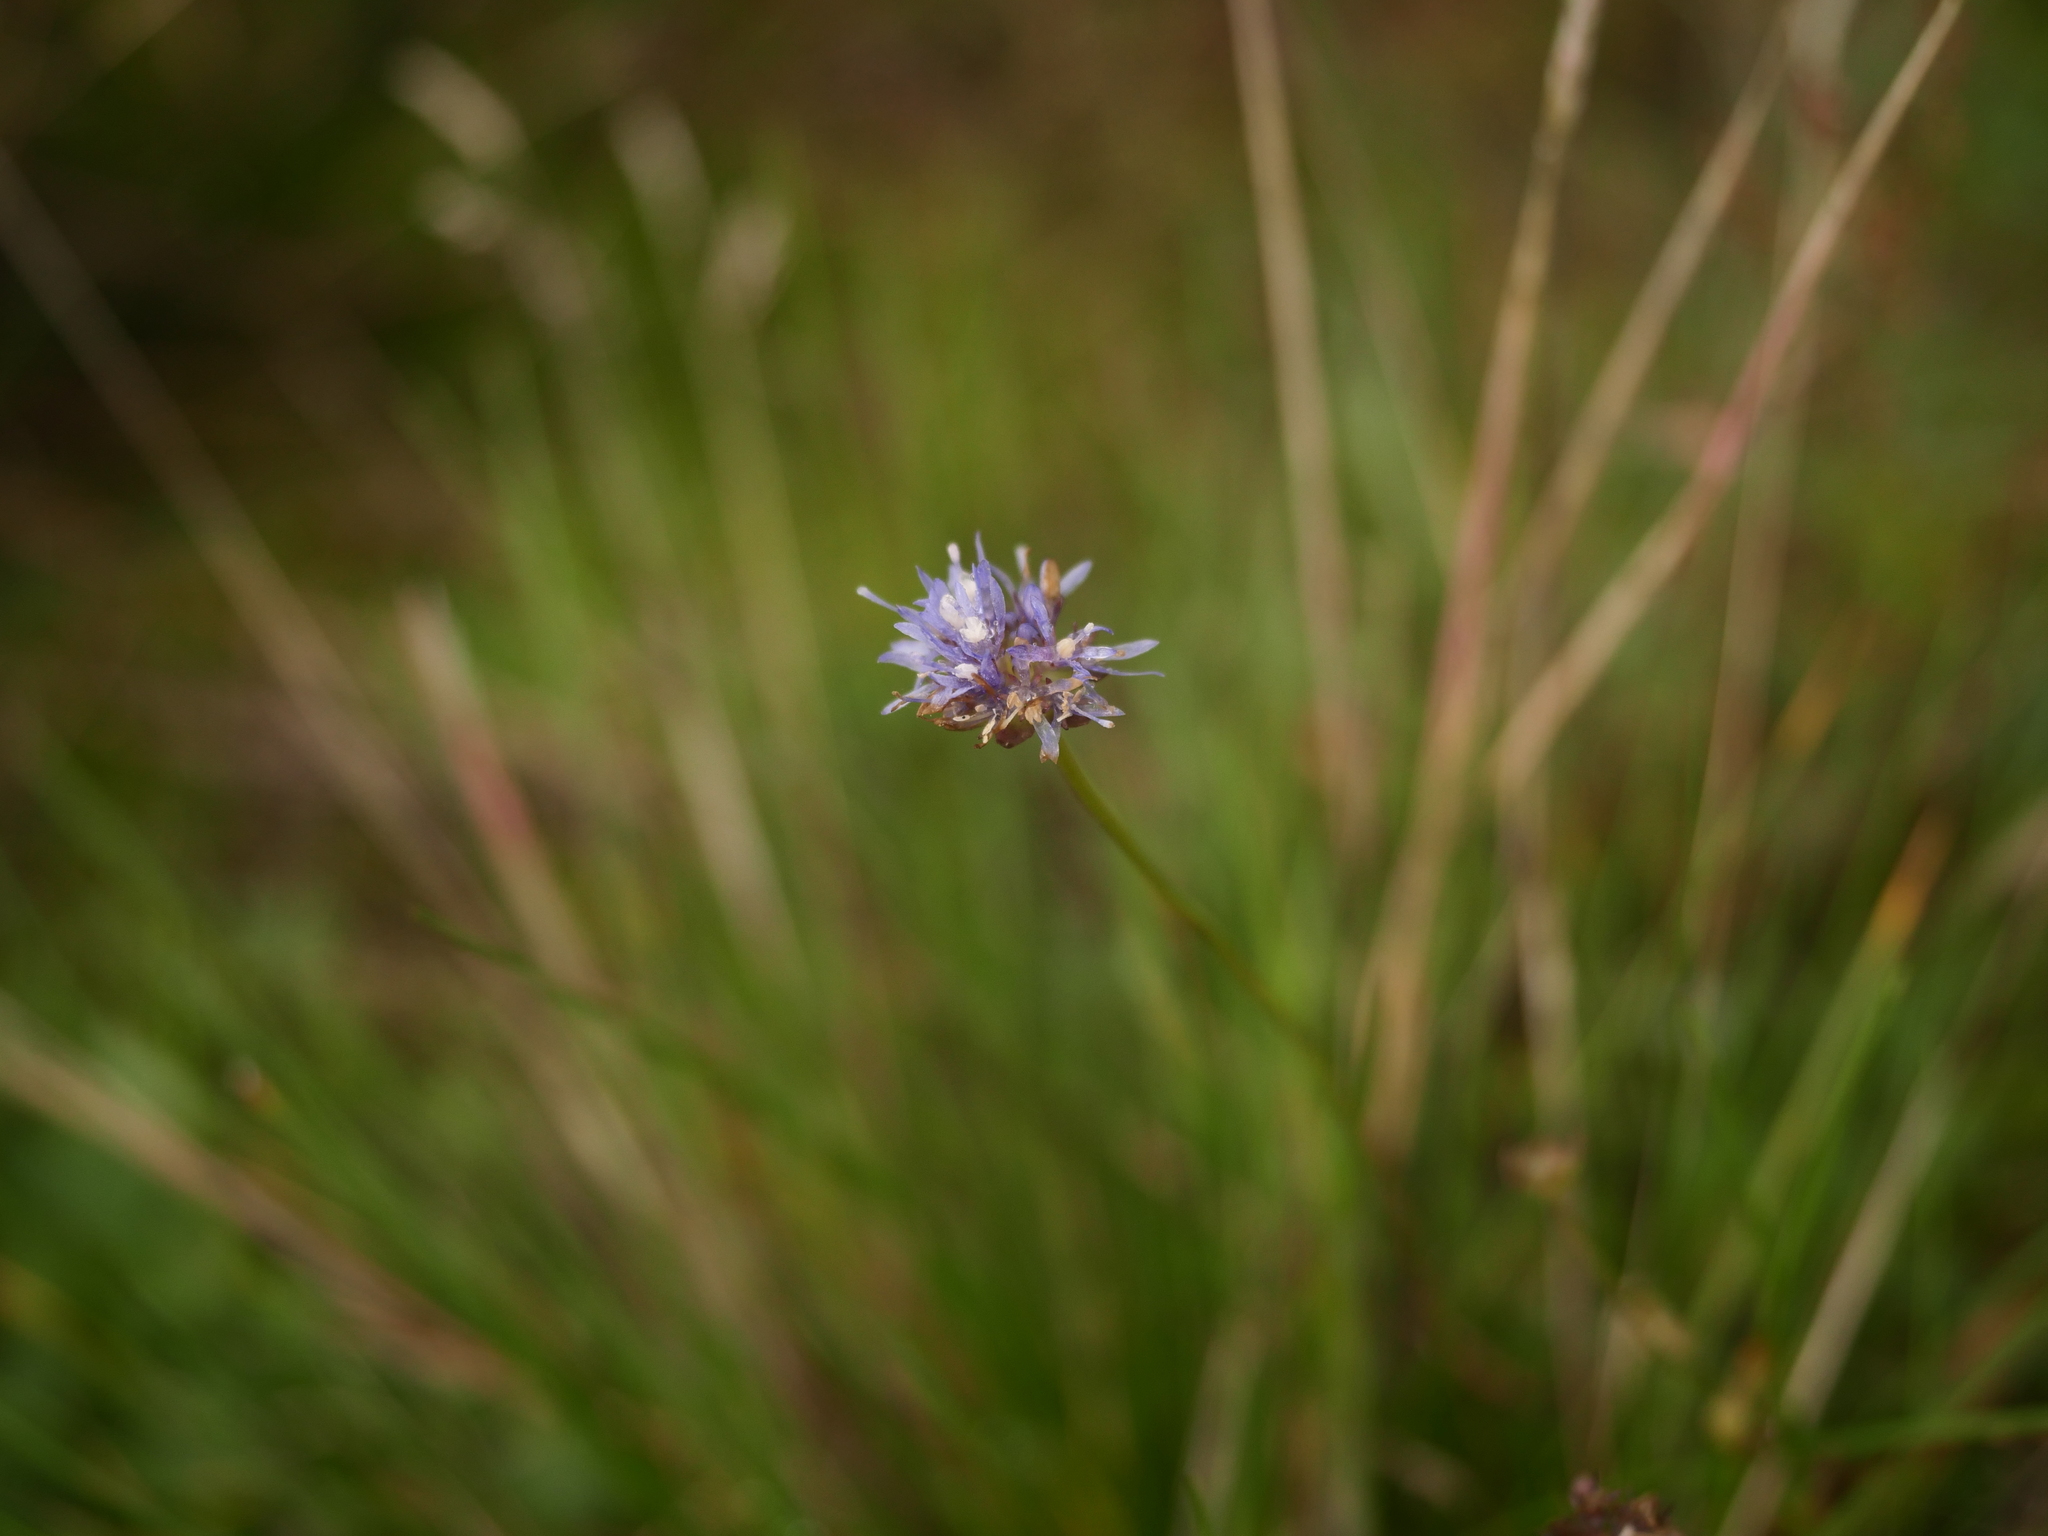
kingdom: Plantae
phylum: Tracheophyta
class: Magnoliopsida
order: Asterales
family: Campanulaceae
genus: Jasione
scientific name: Jasione montana
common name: Sheep's-bit
